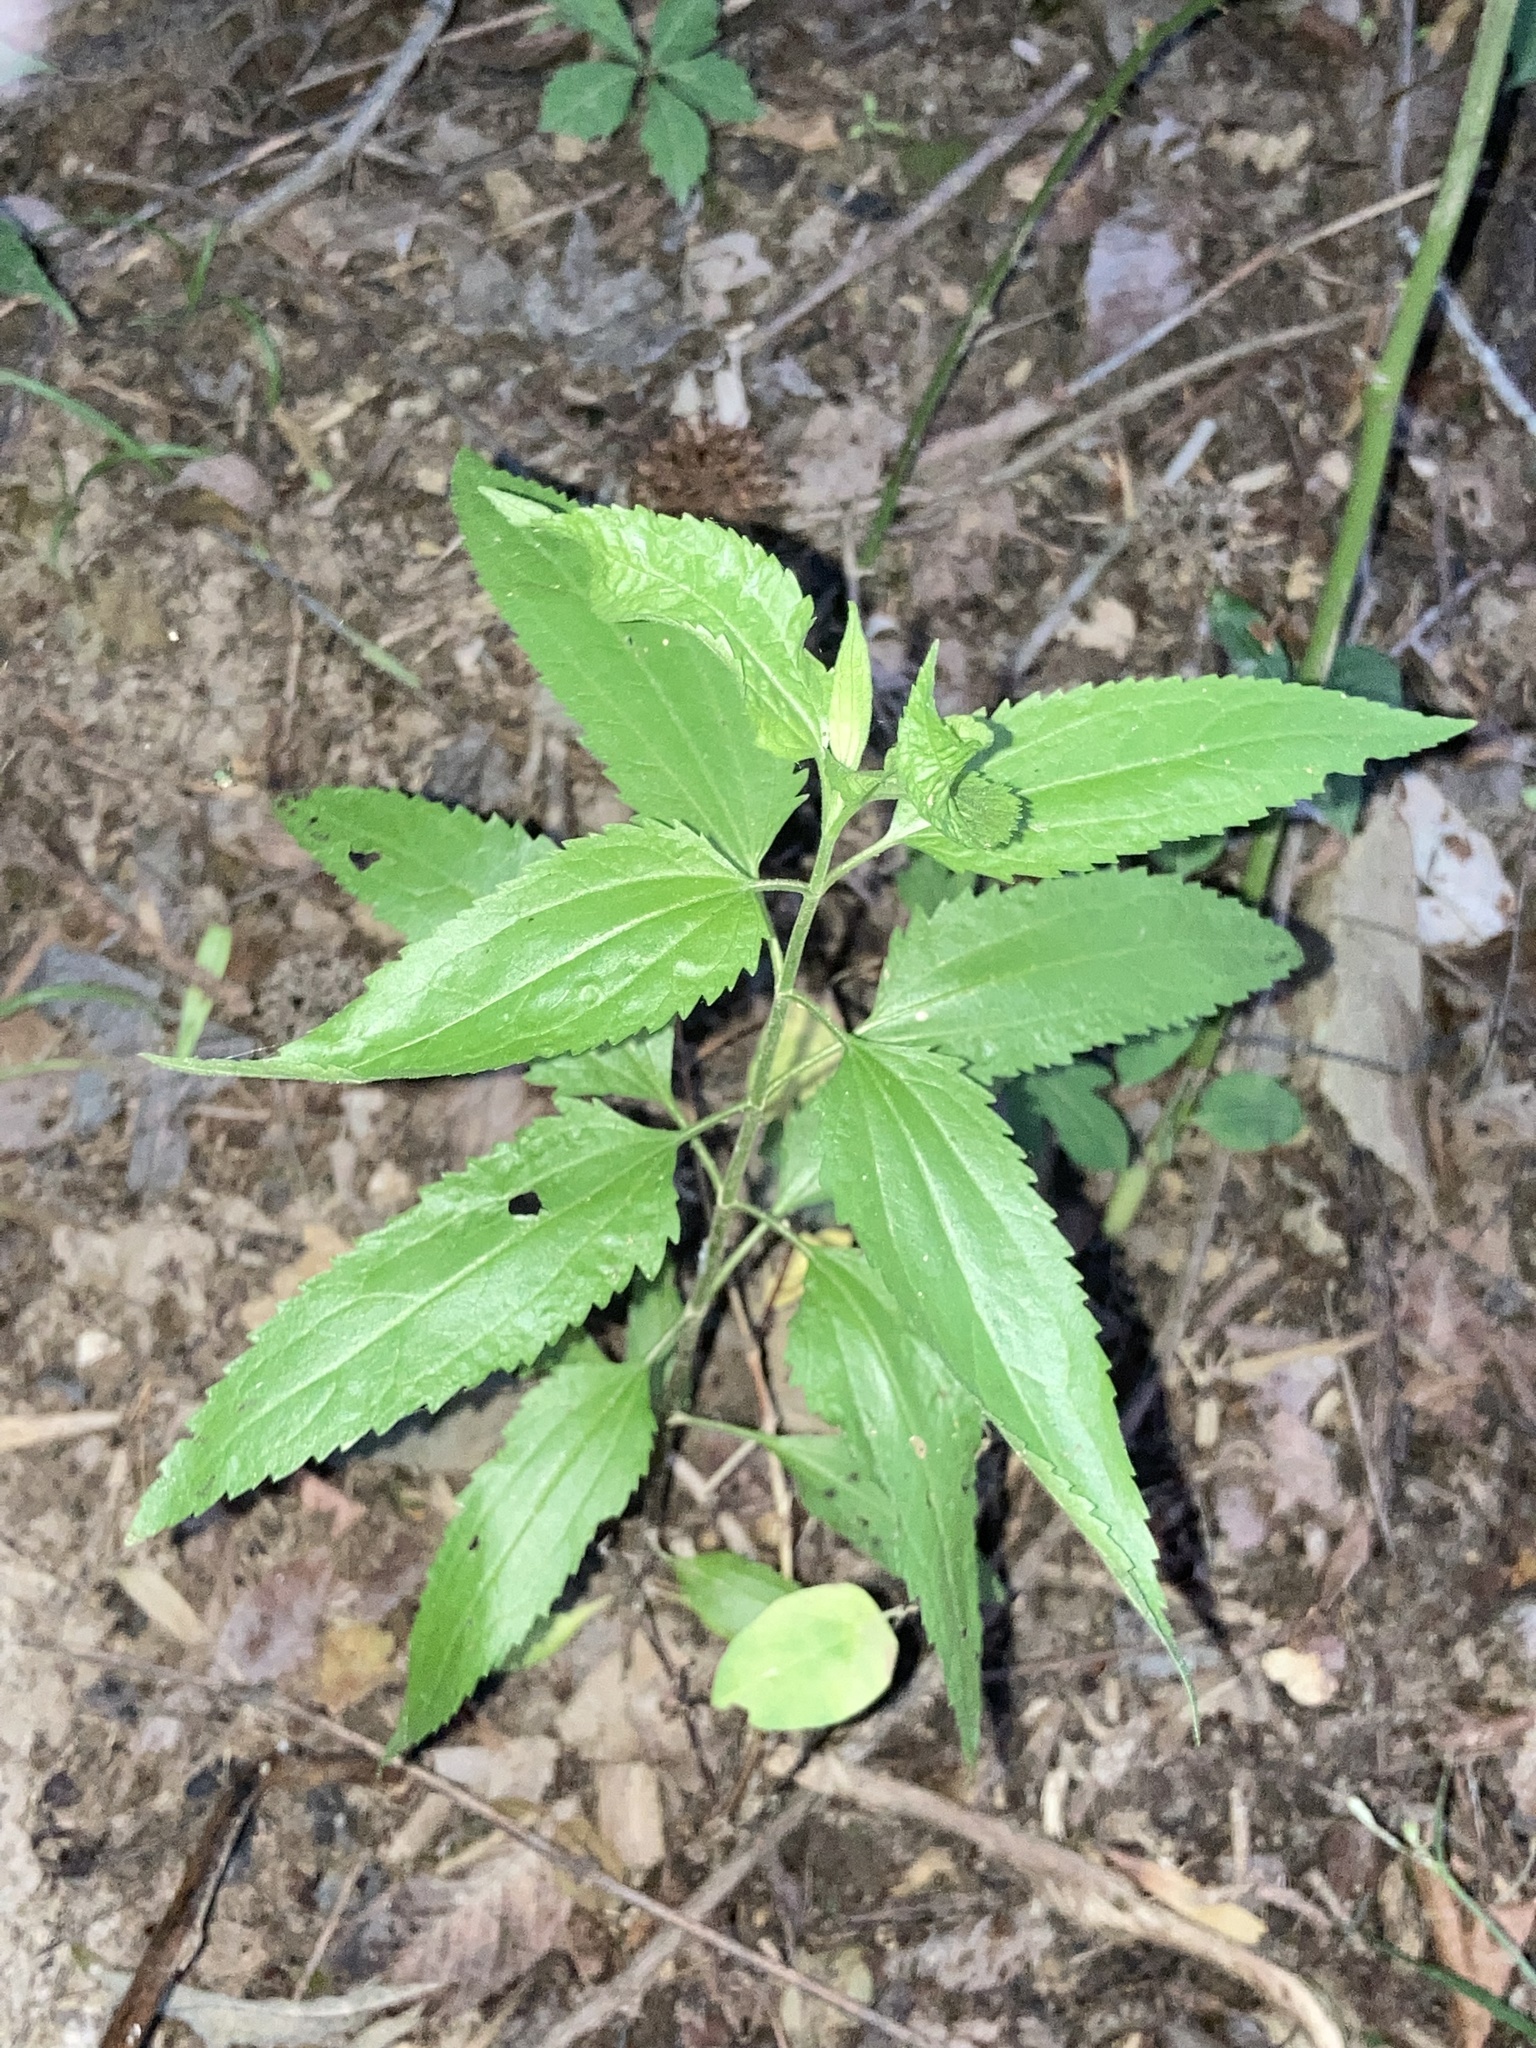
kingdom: Plantae
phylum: Tracheophyta
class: Magnoliopsida
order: Asterales
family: Asteraceae
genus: Eupatorium
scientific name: Eupatorium serotinum
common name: Late boneset
